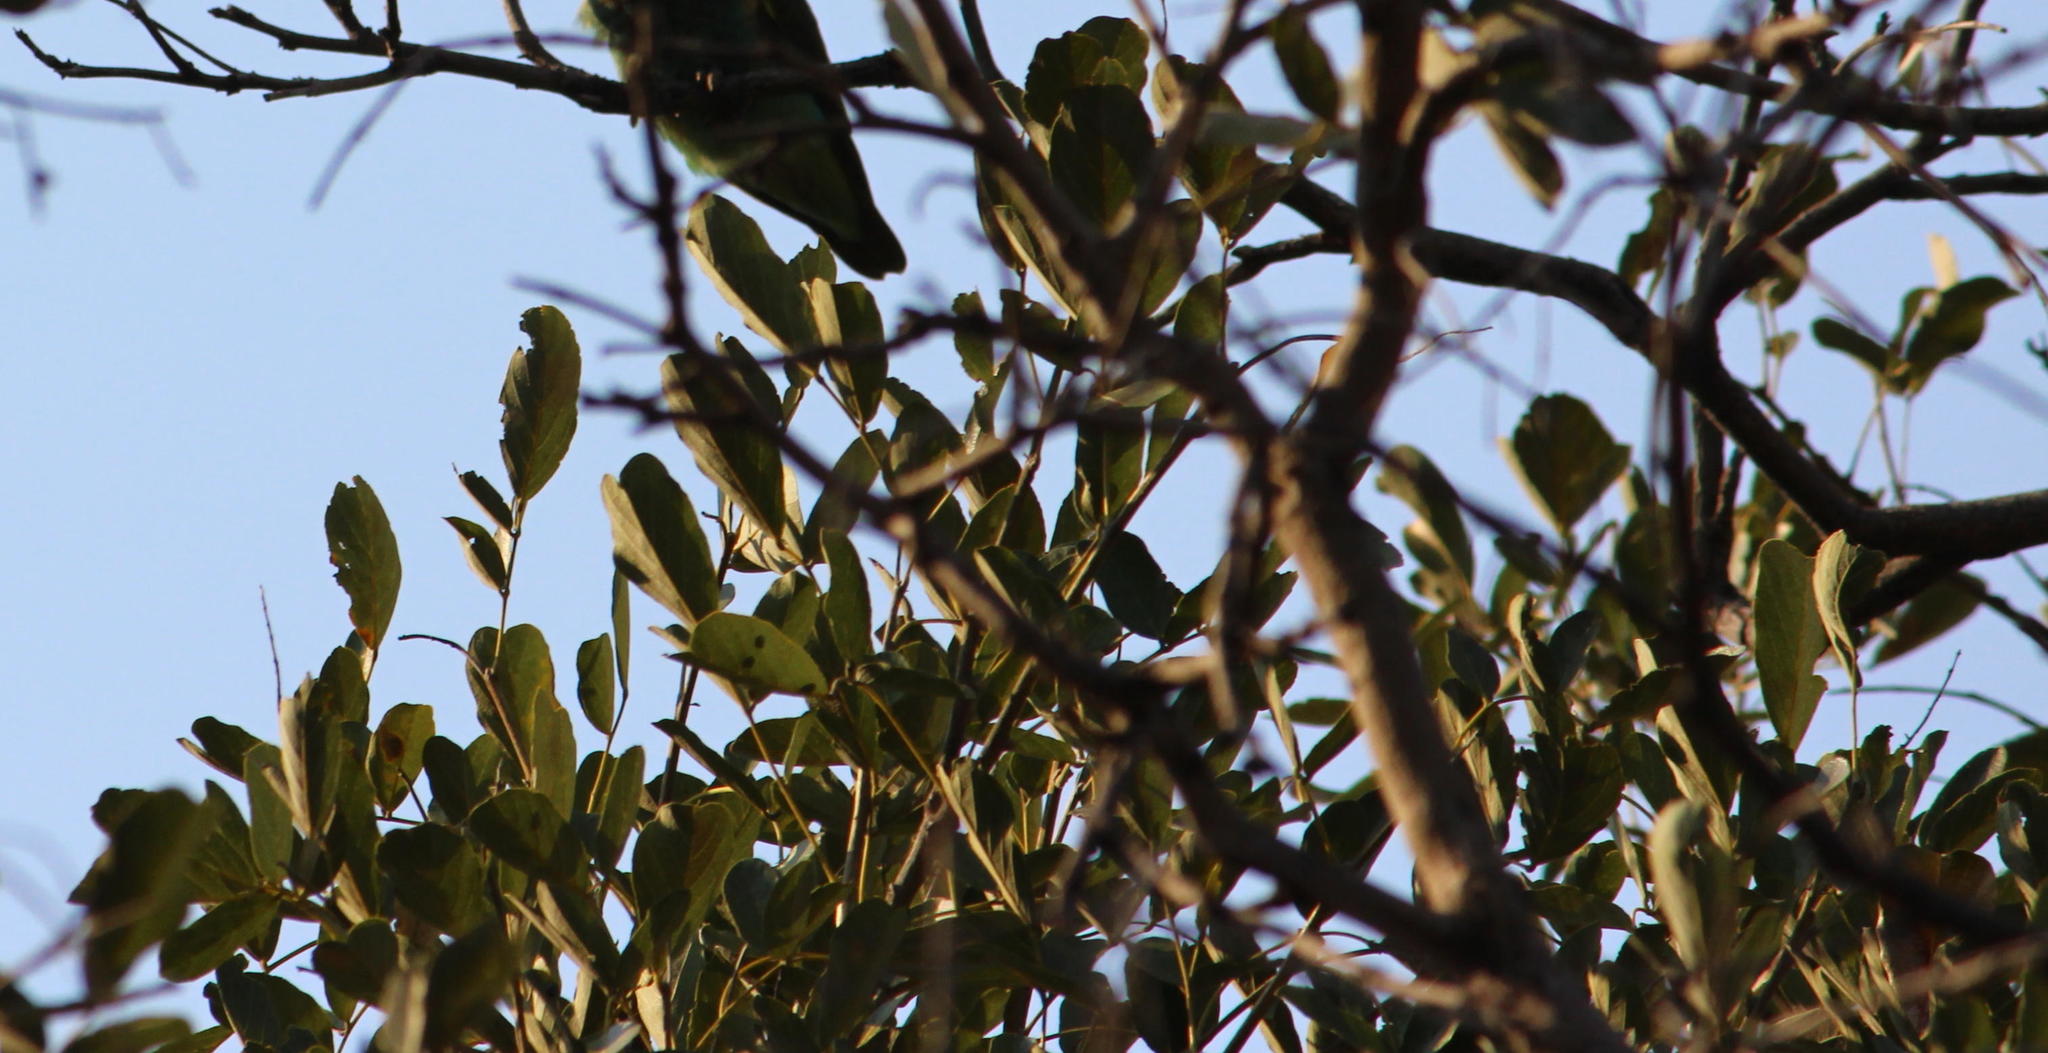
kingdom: Plantae
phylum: Tracheophyta
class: Magnoliopsida
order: Fabales
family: Fabaceae
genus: Philenoptera
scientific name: Philenoptera violacea
